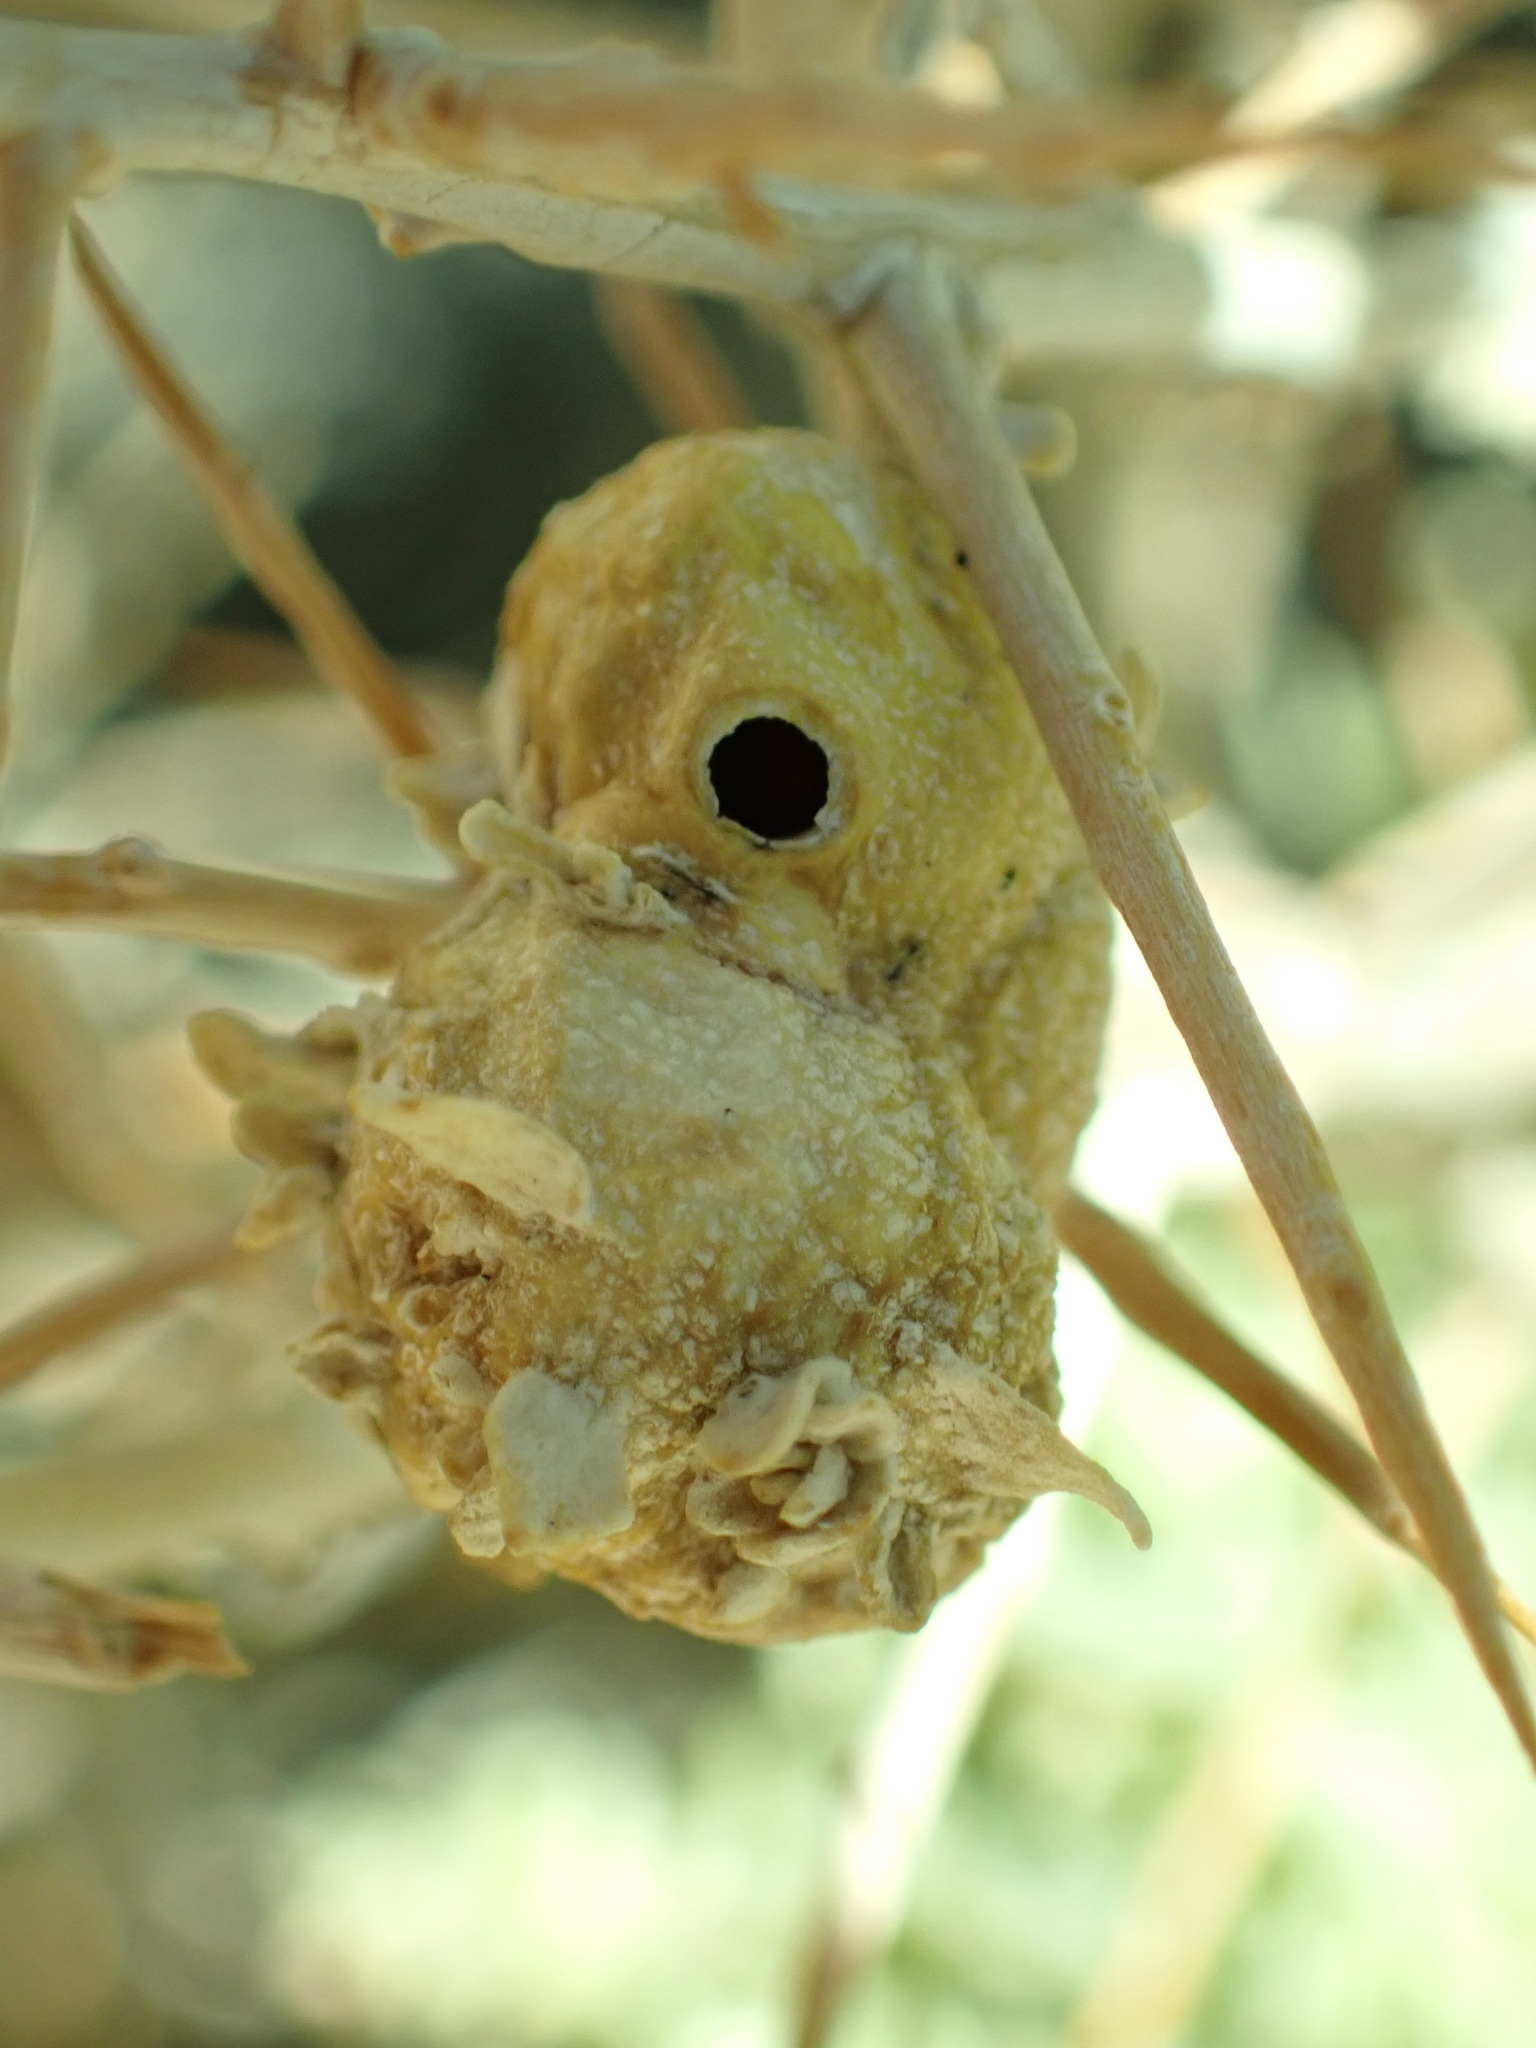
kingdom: Animalia
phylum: Arthropoda
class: Insecta
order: Diptera
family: Cecidomyiidae
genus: Asphondylia
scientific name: Asphondylia atriplicis
